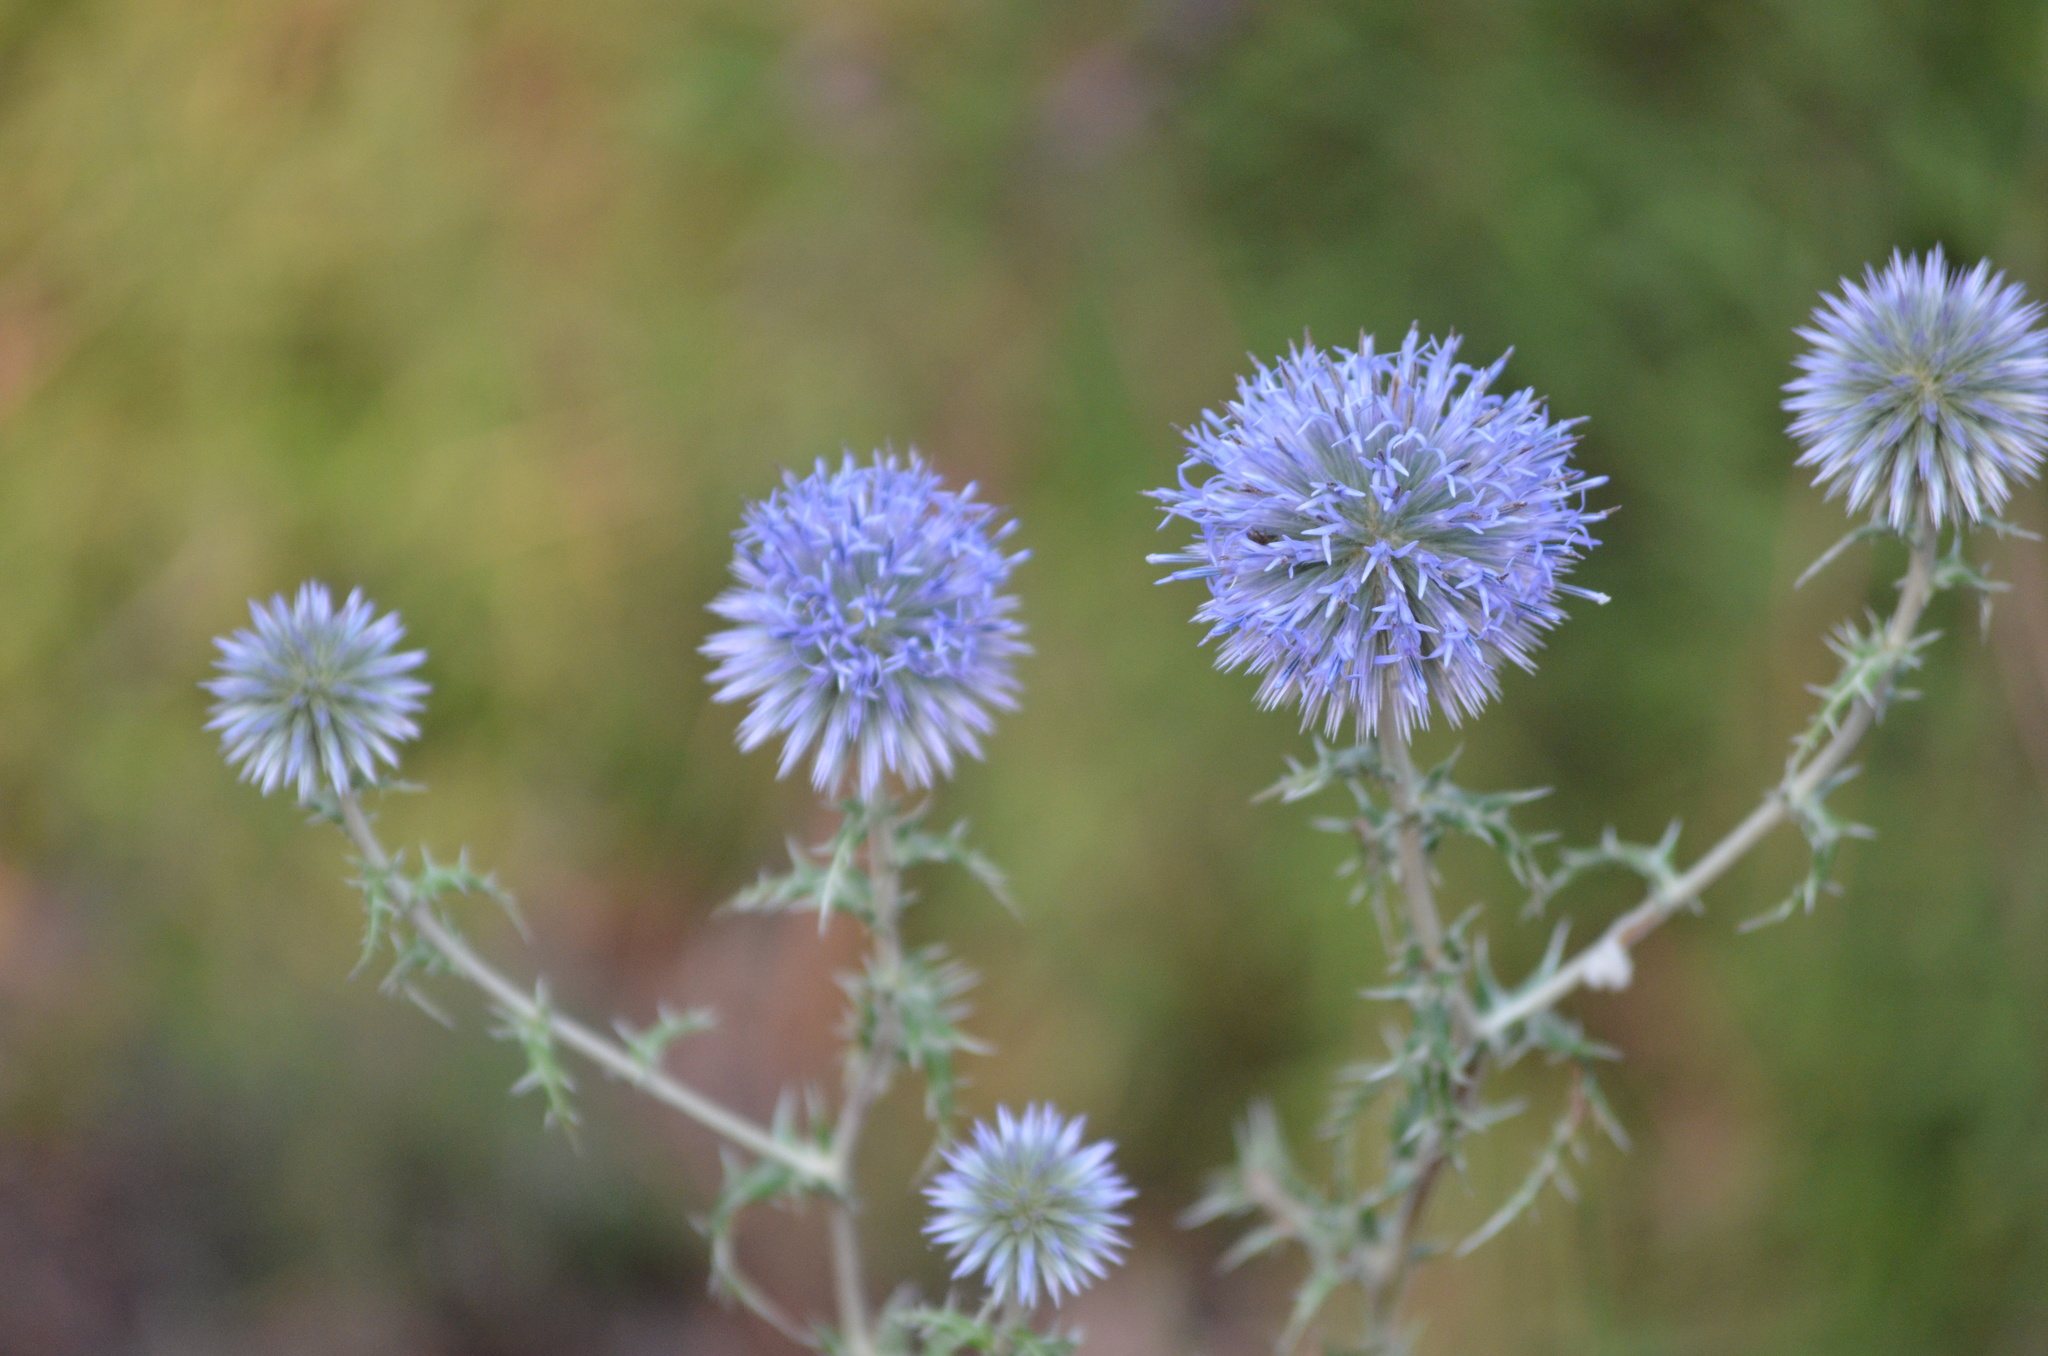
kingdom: Plantae
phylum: Tracheophyta
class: Magnoliopsida
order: Asterales
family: Asteraceae
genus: Echinops
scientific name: Echinops ritro
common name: Globe thistle
